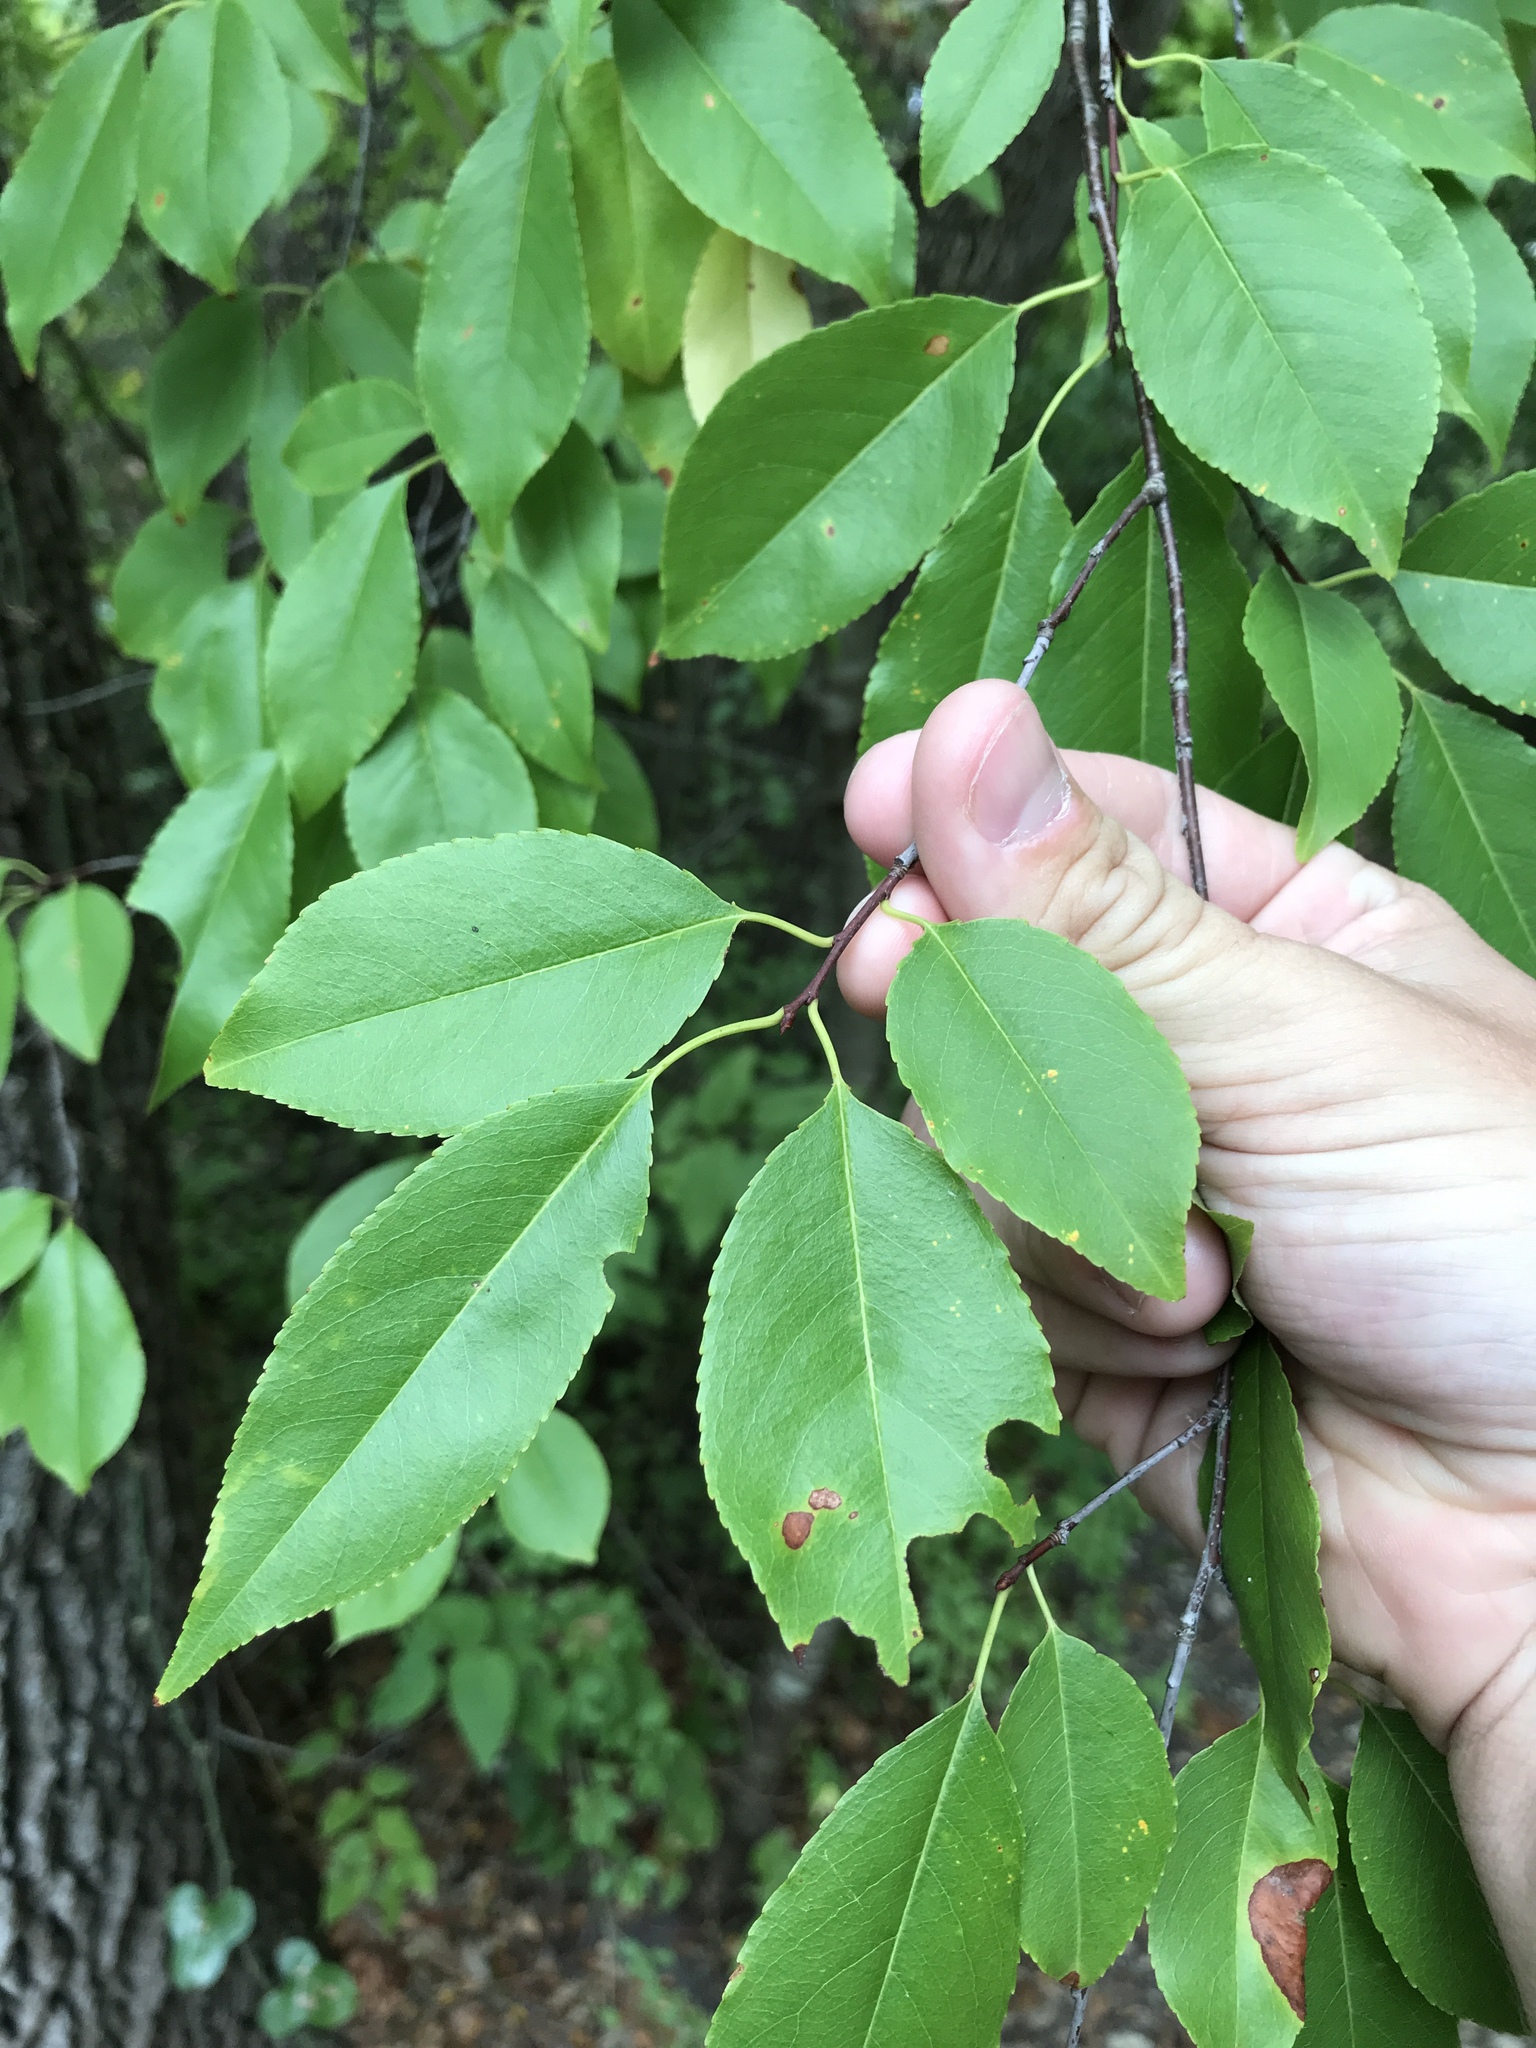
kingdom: Plantae
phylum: Tracheophyta
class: Magnoliopsida
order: Rosales
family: Rosaceae
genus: Prunus
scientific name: Prunus serotina
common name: Black cherry
